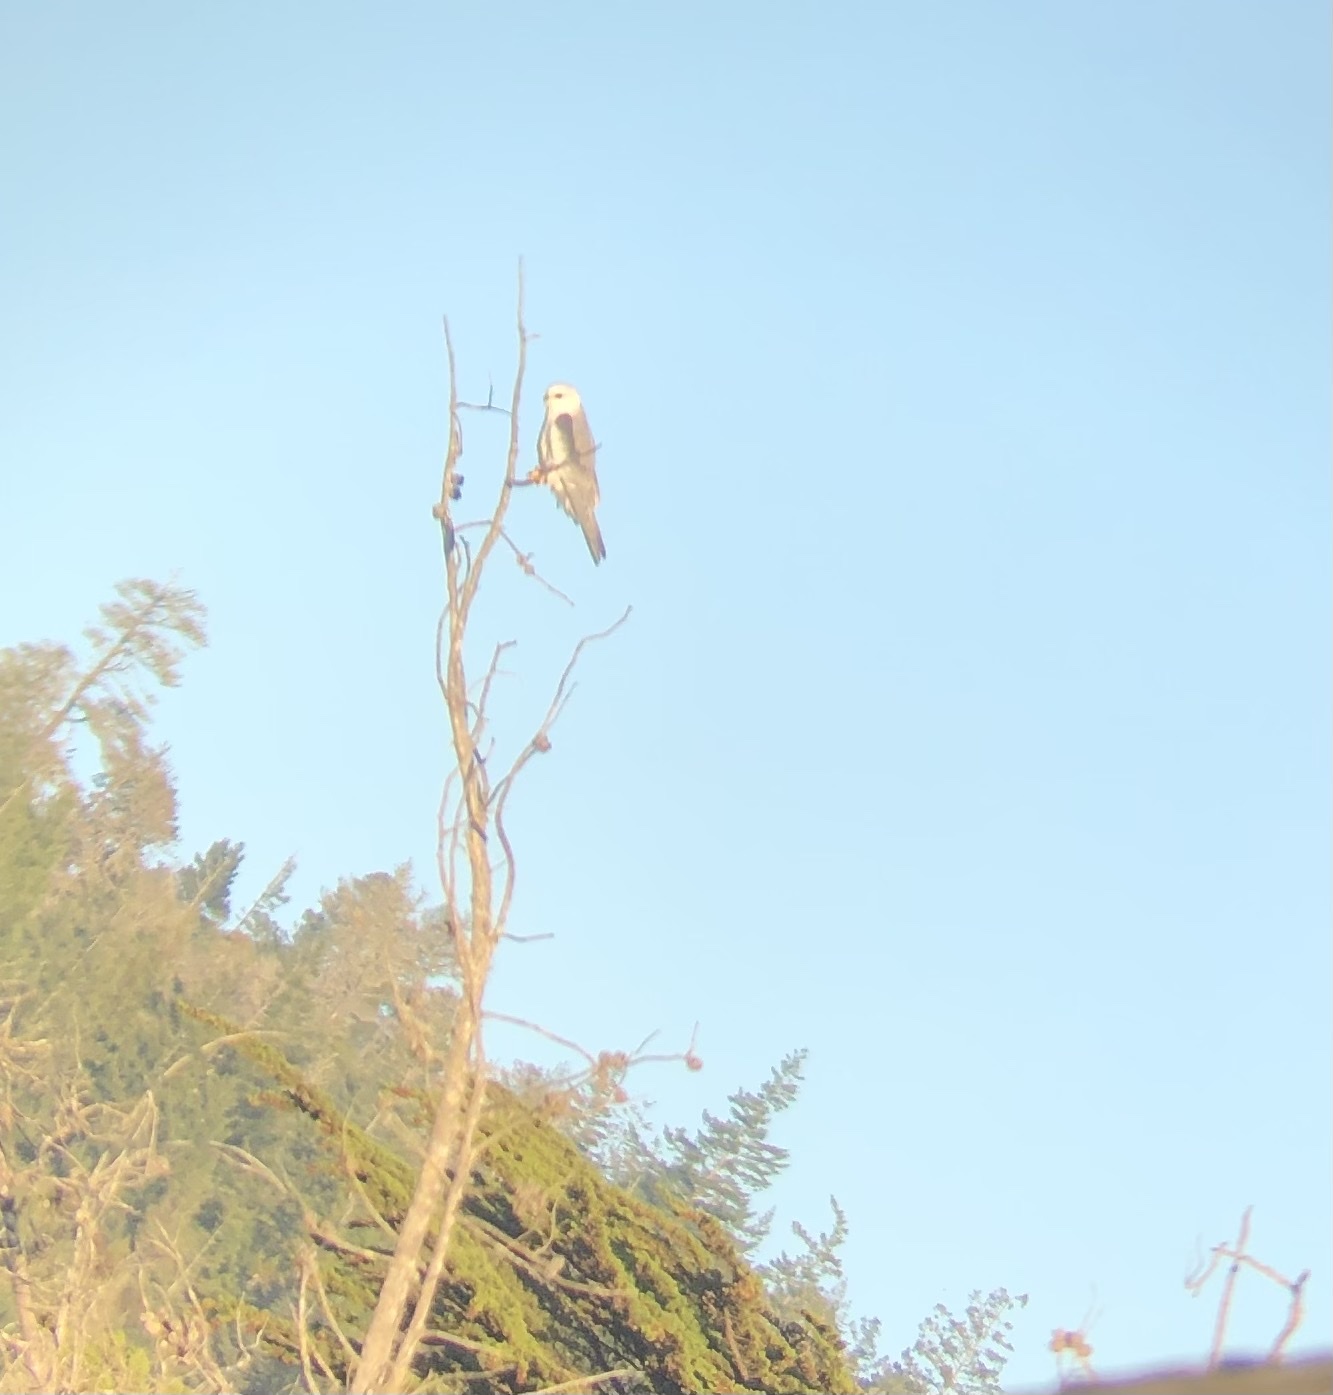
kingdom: Animalia
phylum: Chordata
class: Aves
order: Accipitriformes
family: Accipitridae
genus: Elanus
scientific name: Elanus leucurus
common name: White-tailed kite
